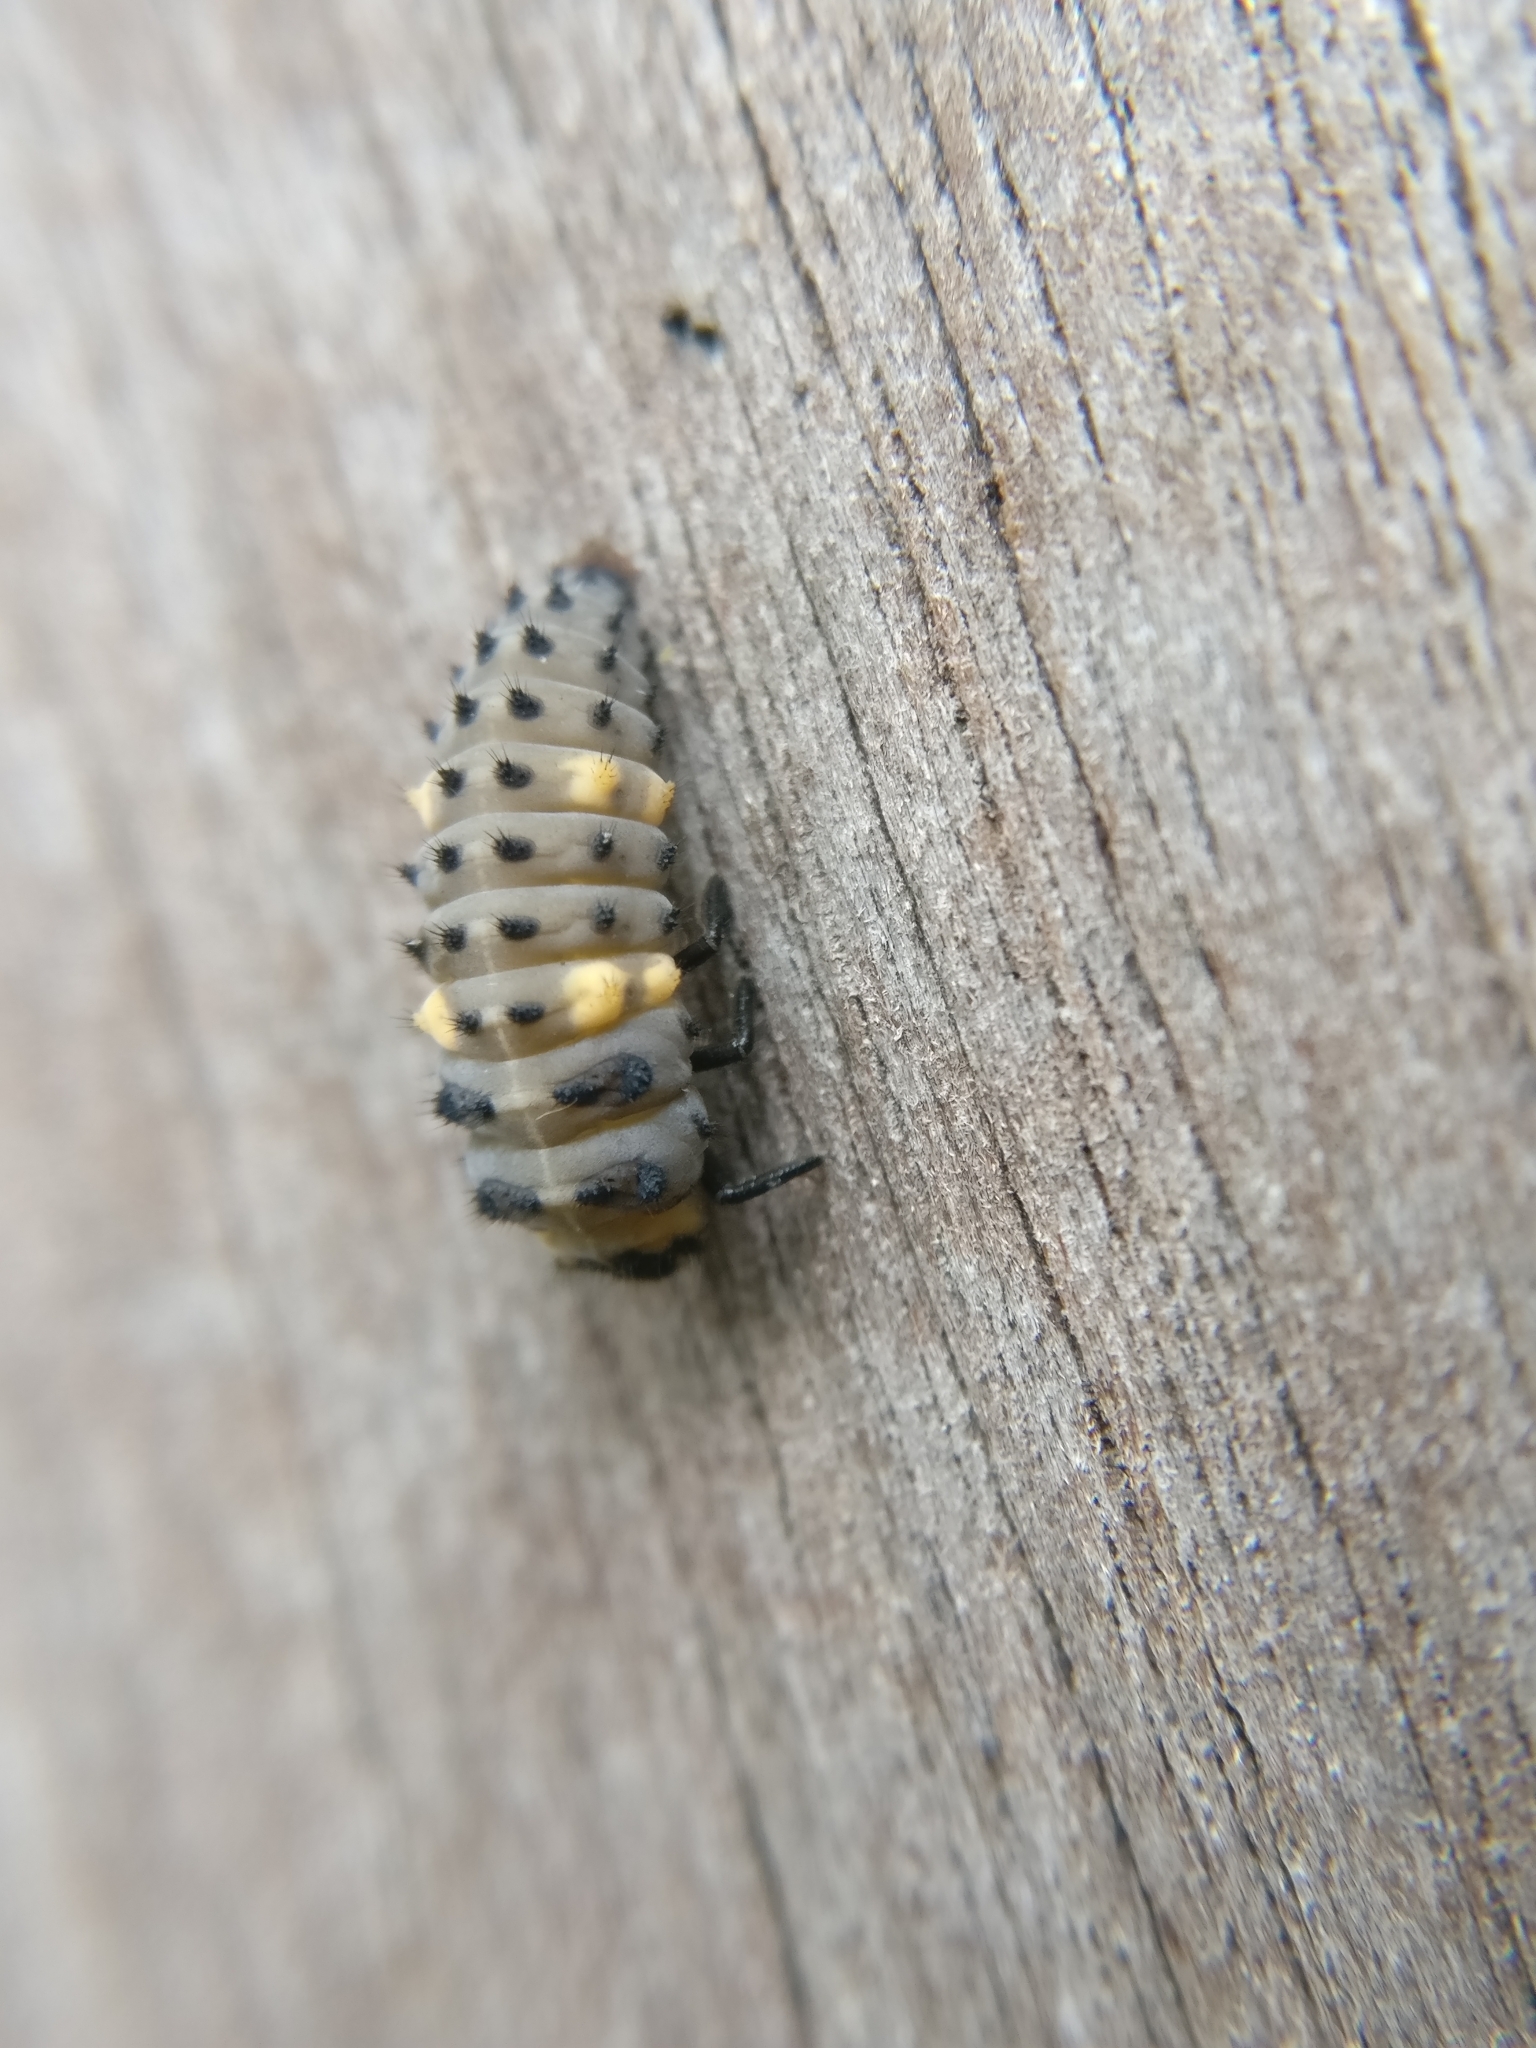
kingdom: Animalia
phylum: Arthropoda
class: Insecta
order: Coleoptera
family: Coccinellidae
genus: Coccinella
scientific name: Coccinella septempunctata
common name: Sevenspotted lady beetle
